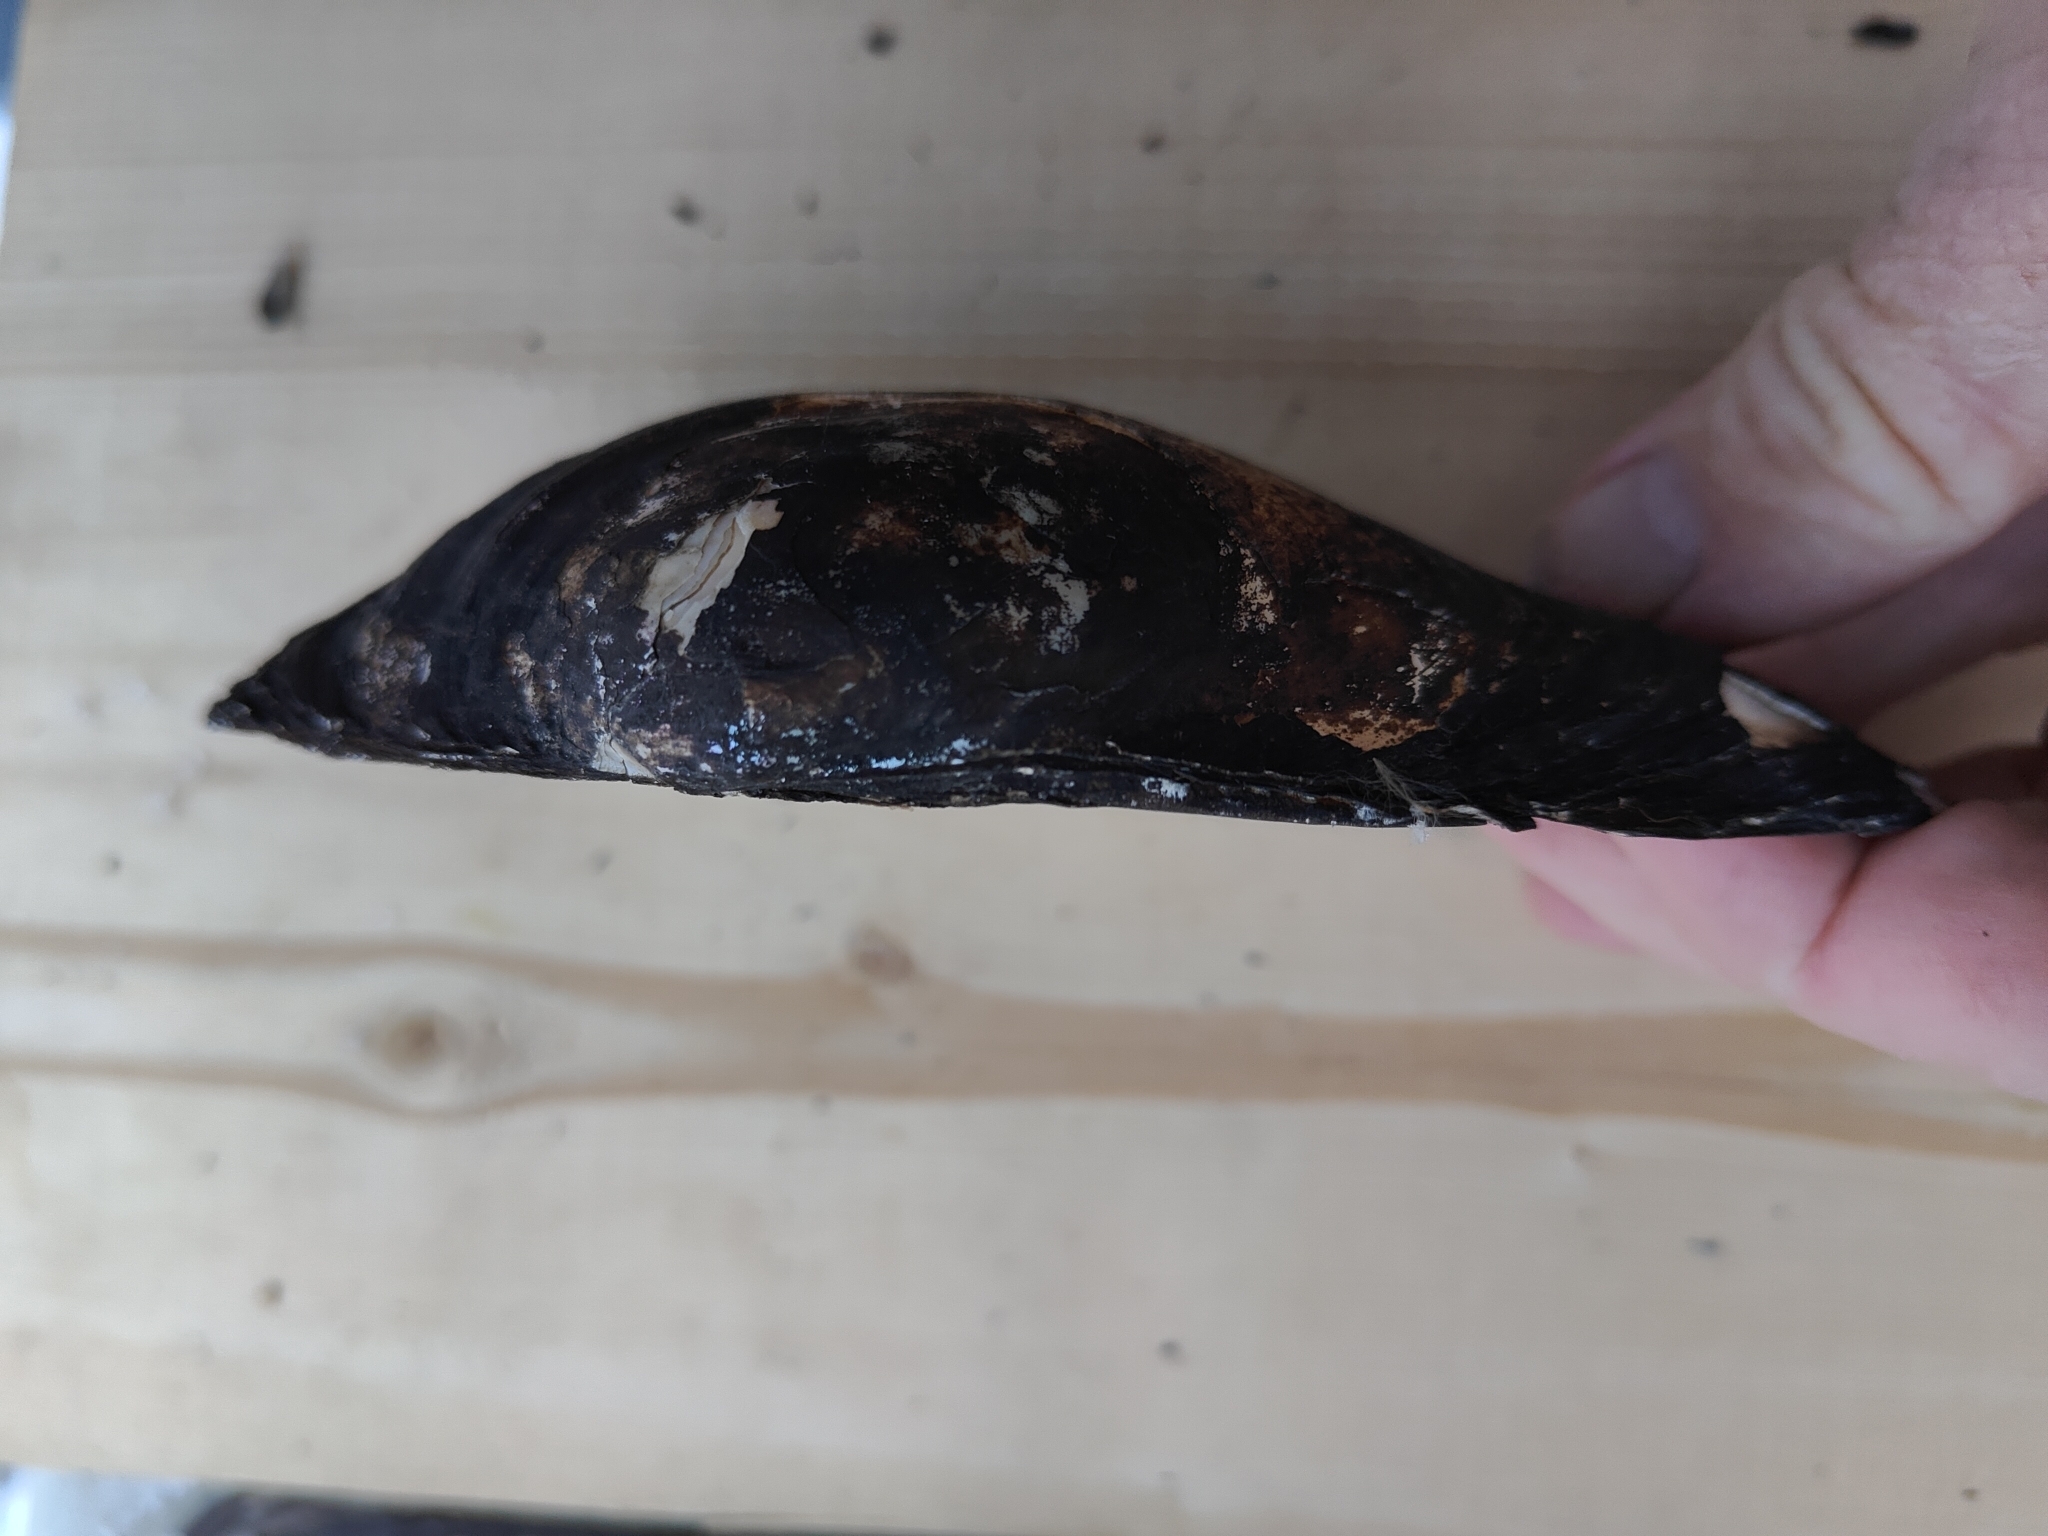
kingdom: Animalia
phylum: Mollusca
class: Bivalvia
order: Unionida
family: Unionidae
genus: Pyganodon
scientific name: Pyganodon grandis
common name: Giant floater
